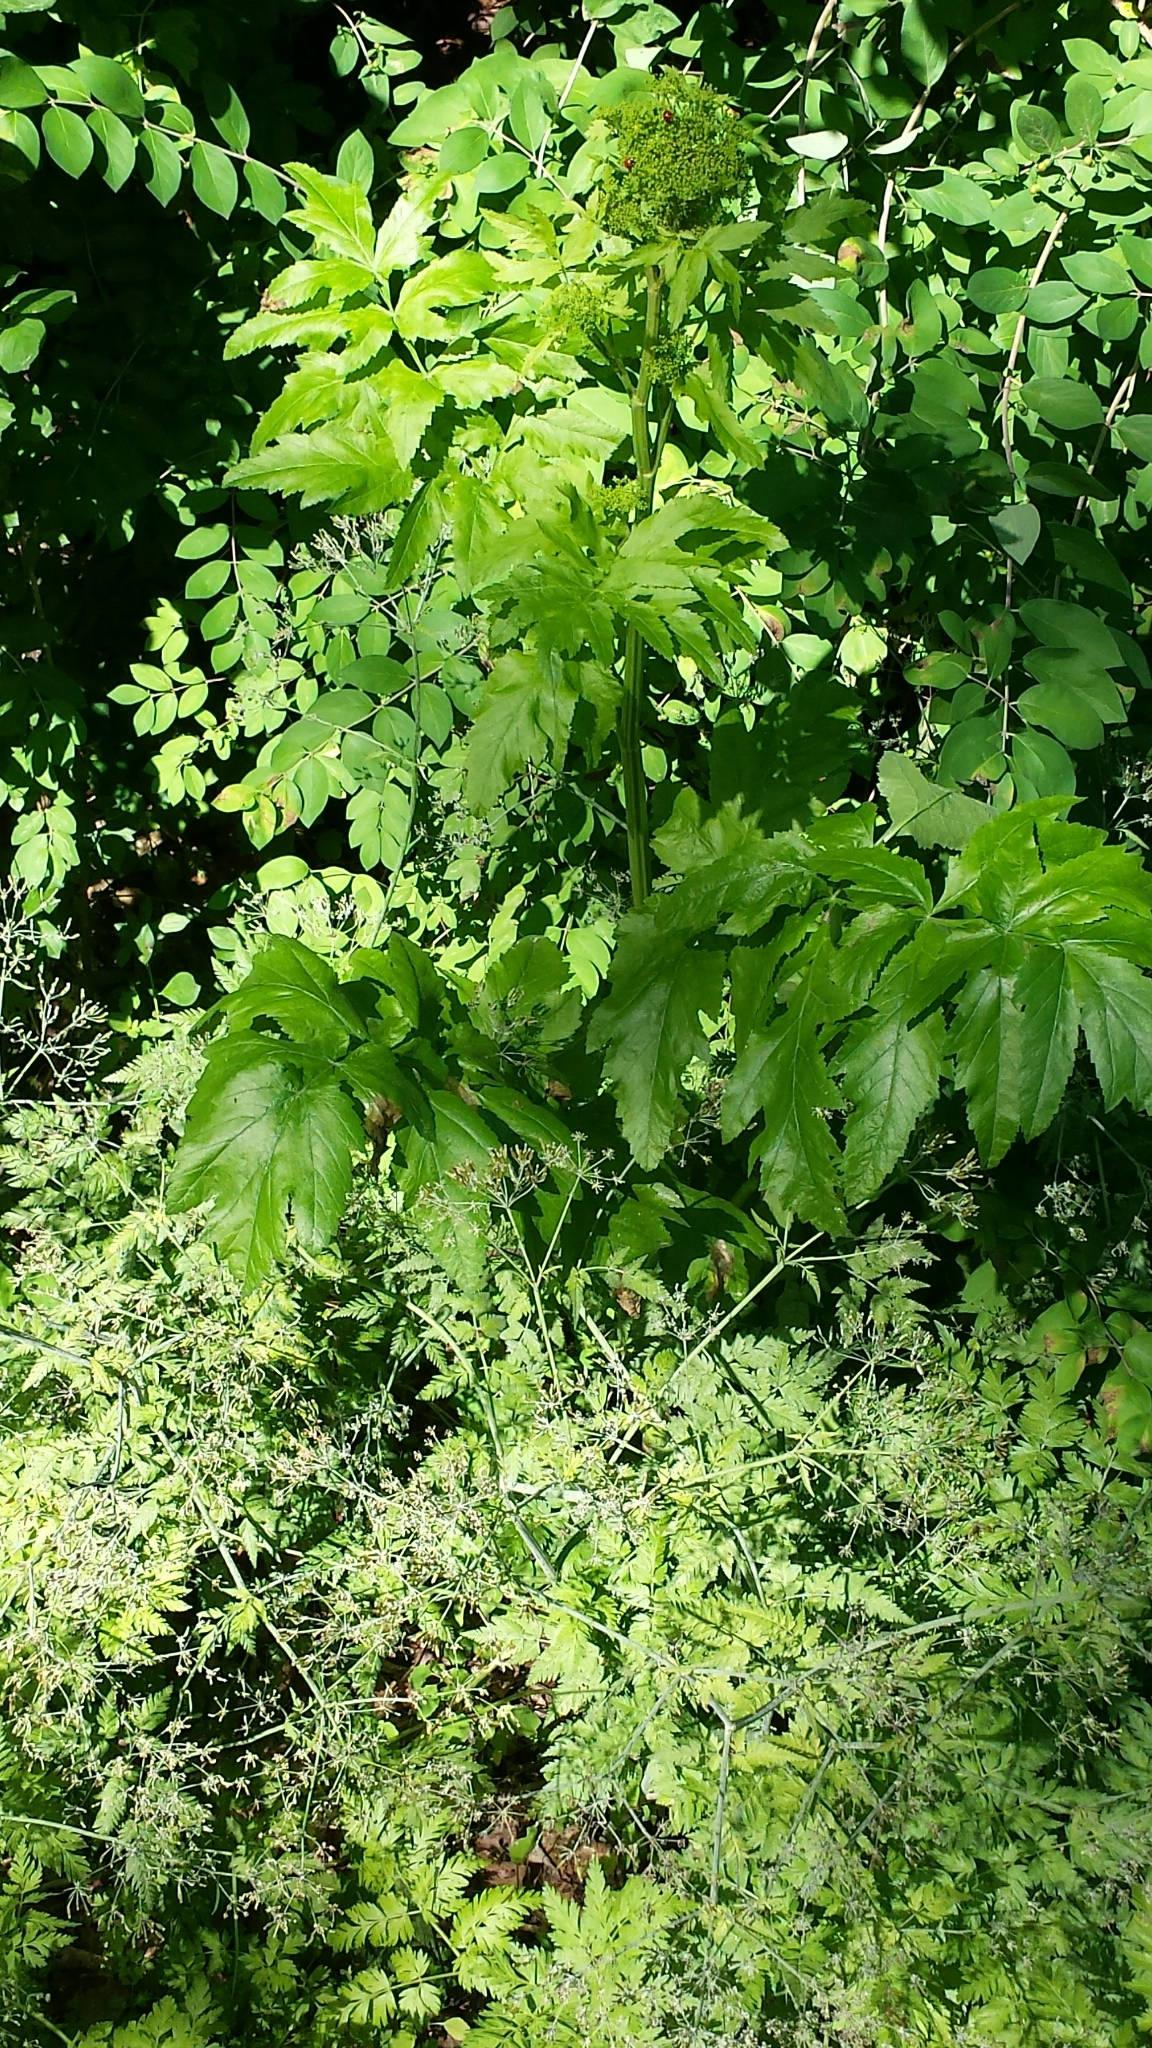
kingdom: Plantae
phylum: Tracheophyta
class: Magnoliopsida
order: Apiales
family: Apiaceae
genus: Pastinaca
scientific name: Pastinaca sativa
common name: Wild parsnip
